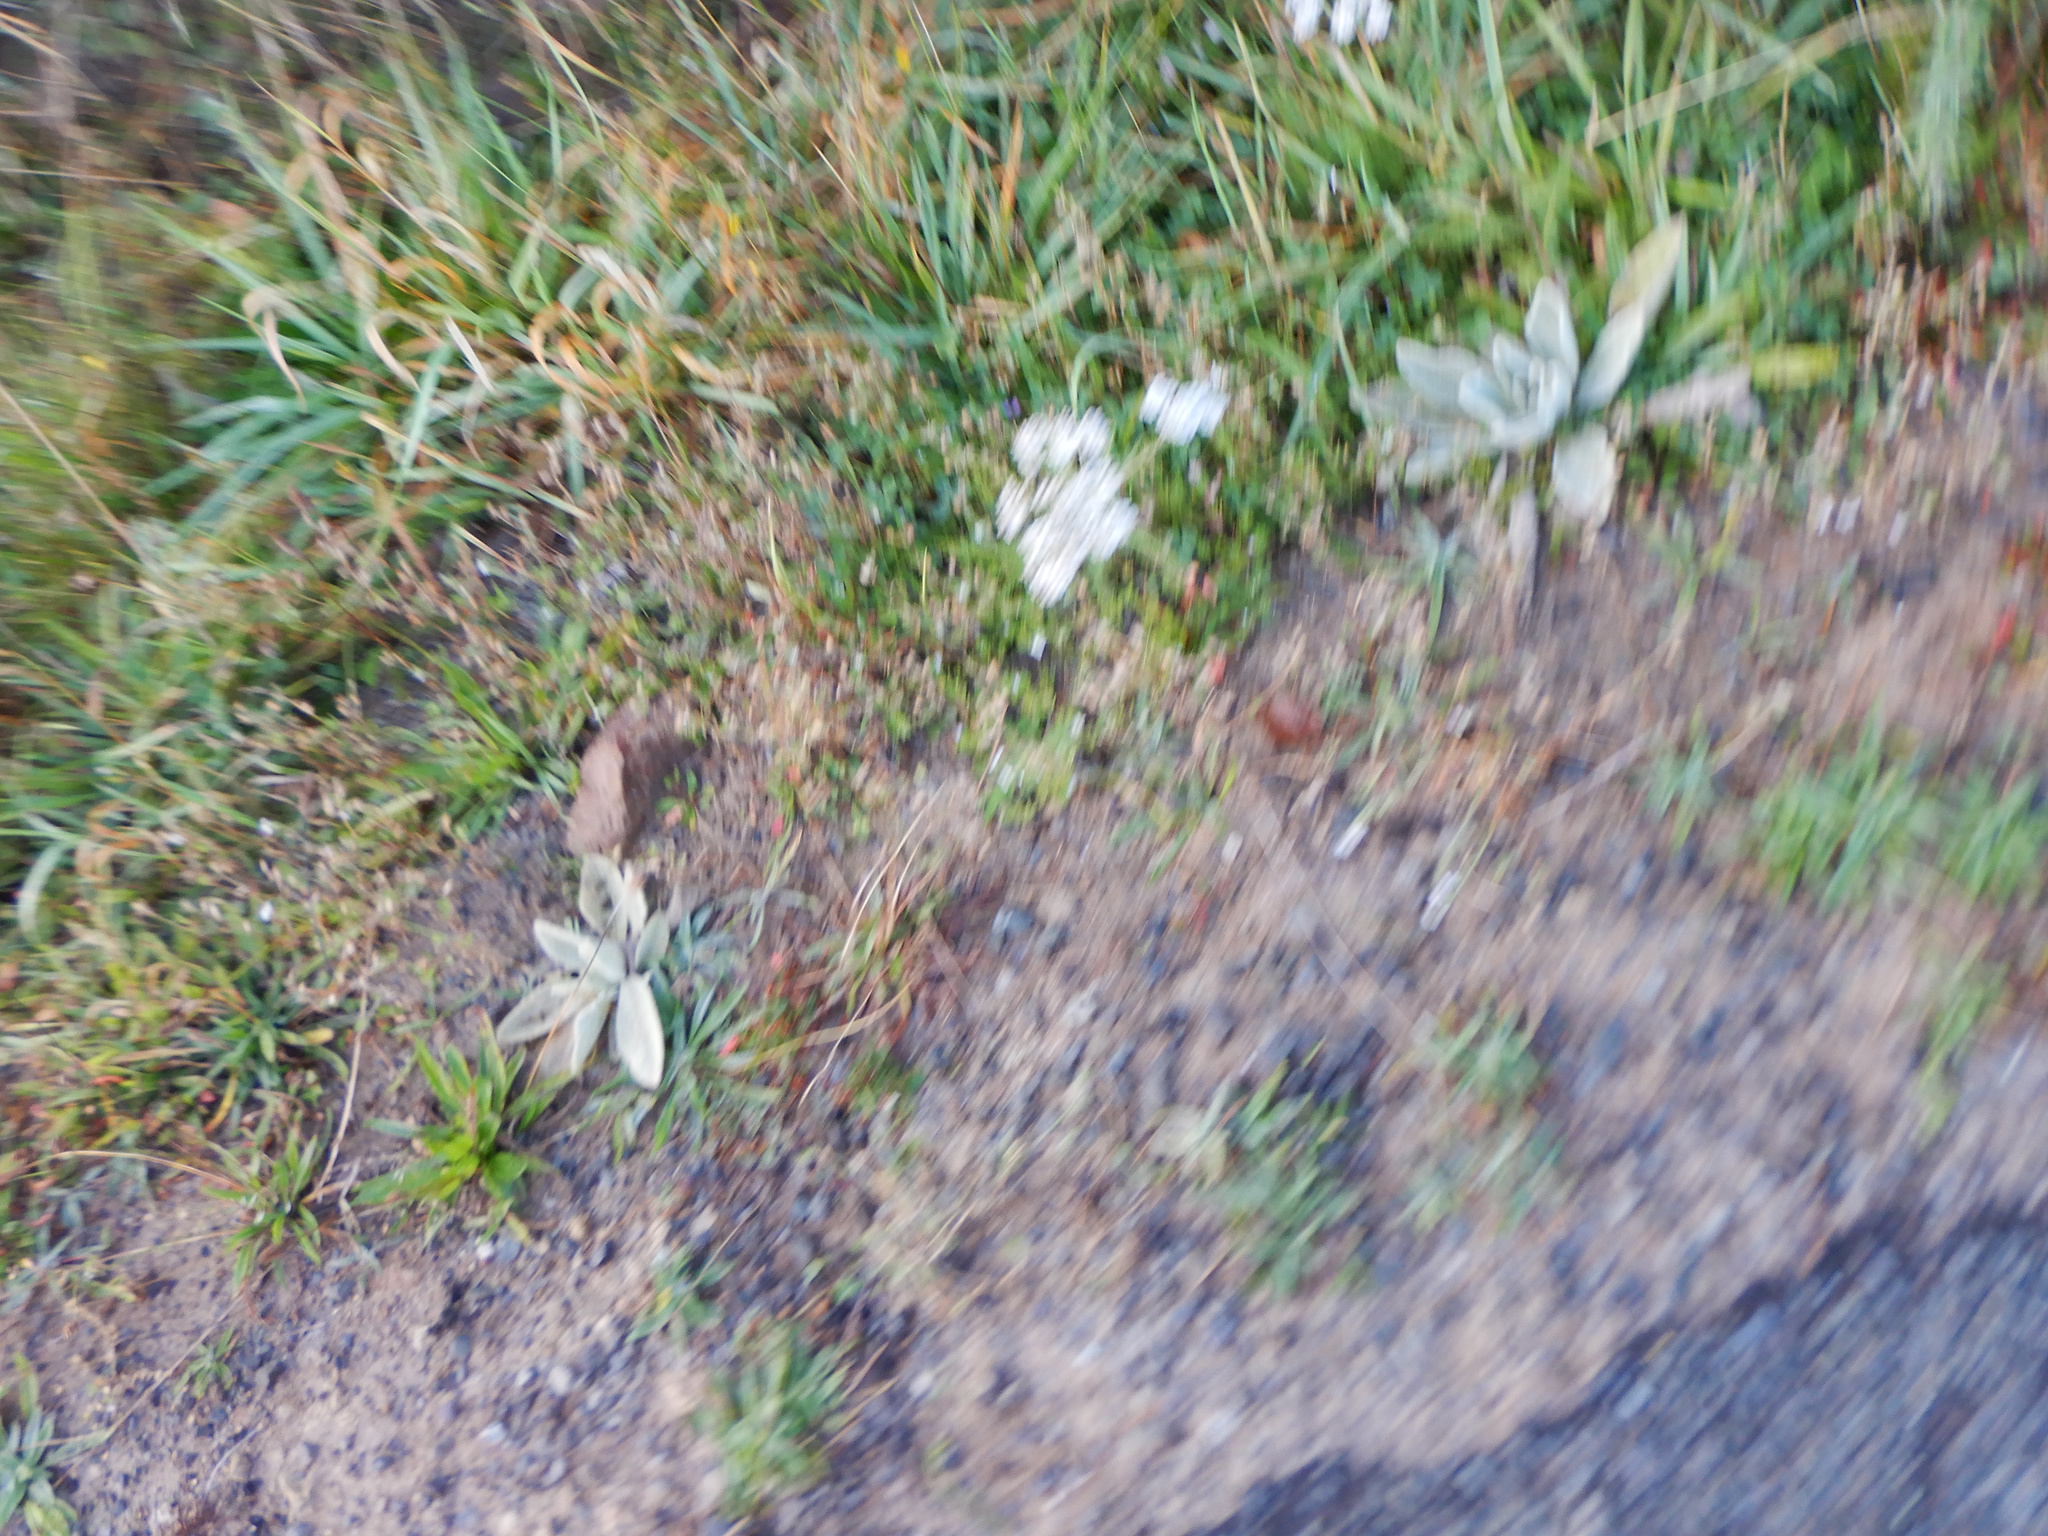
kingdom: Plantae
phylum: Tracheophyta
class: Magnoliopsida
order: Lamiales
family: Scrophulariaceae
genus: Verbascum
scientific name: Verbascum thapsus
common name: Common mullein
